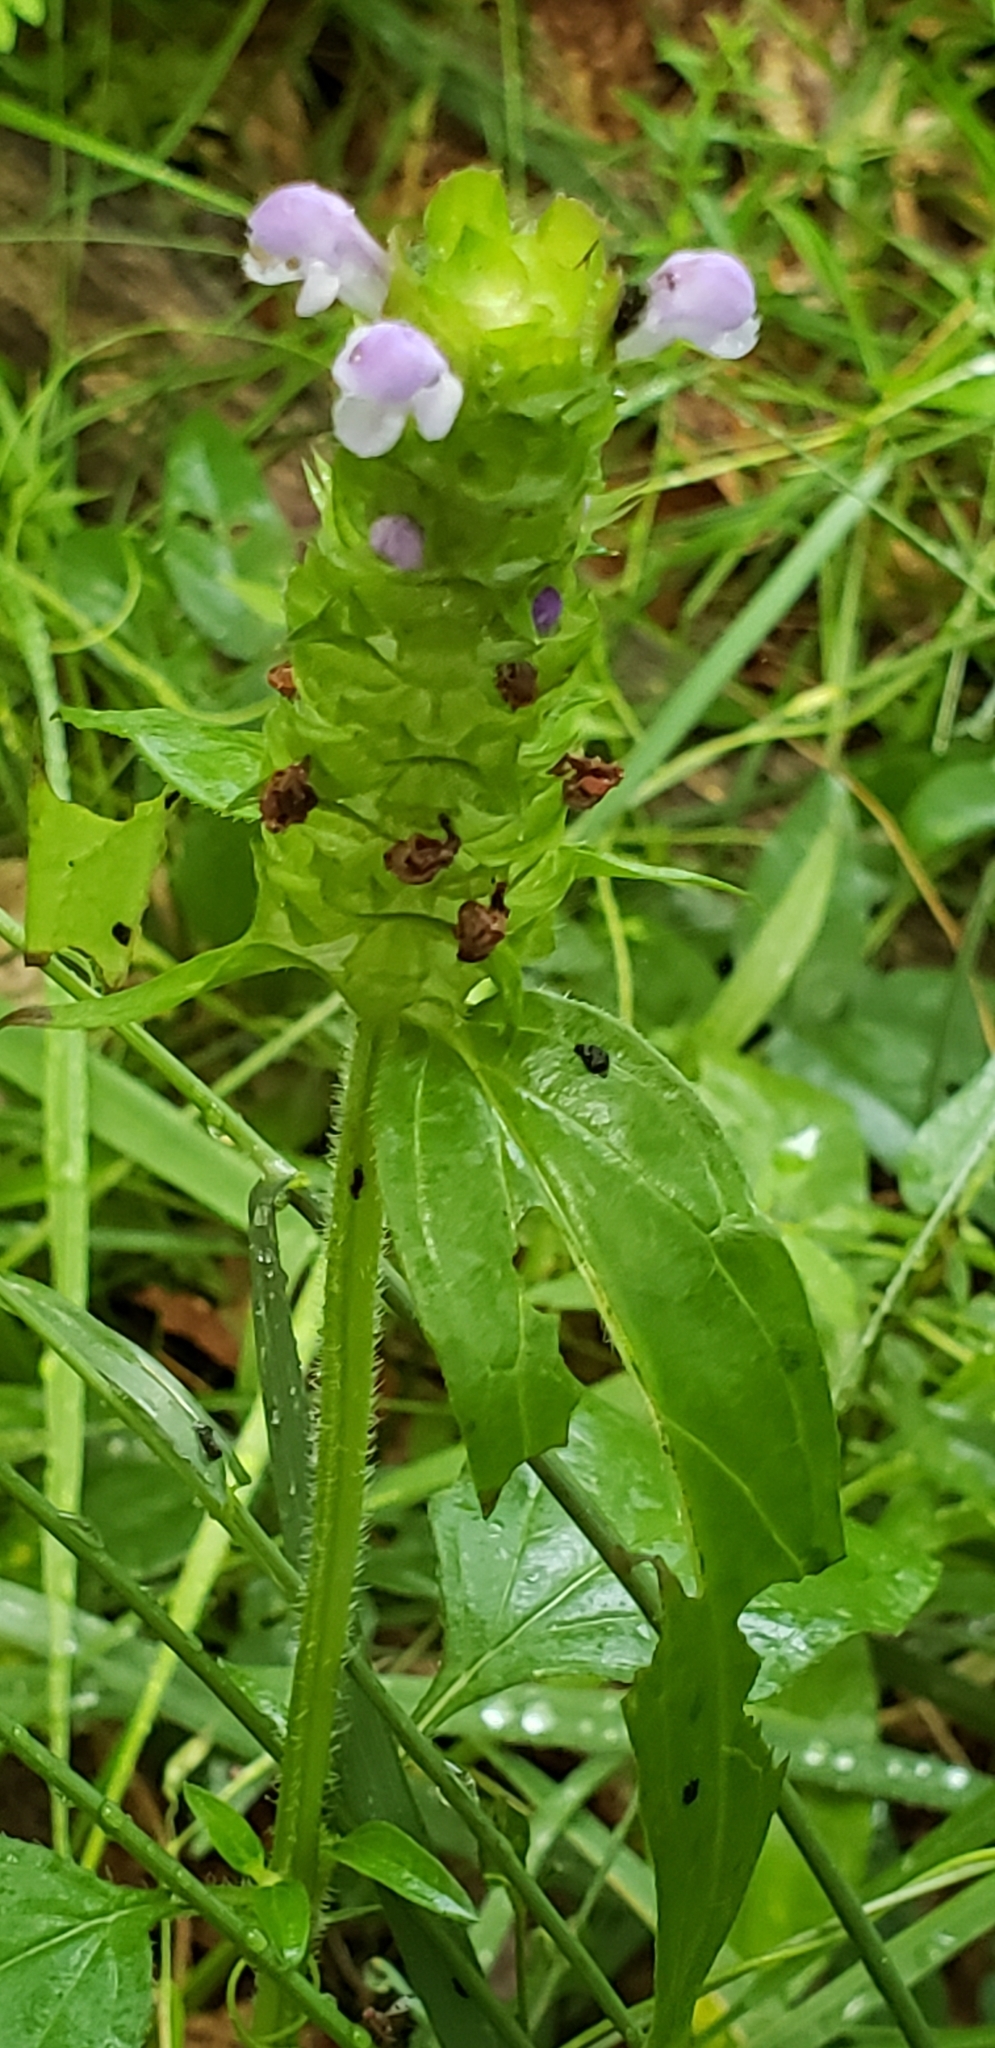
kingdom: Plantae
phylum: Tracheophyta
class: Magnoliopsida
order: Lamiales
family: Lamiaceae
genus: Prunella
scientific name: Prunella vulgaris
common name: Heal-all
